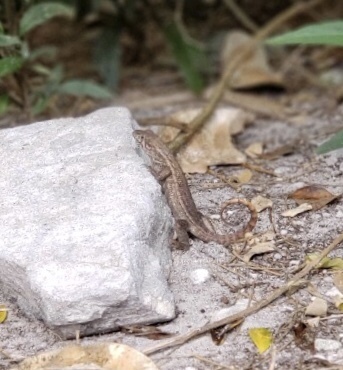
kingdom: Animalia
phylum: Chordata
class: Squamata
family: Leiocephalidae
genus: Leiocephalus
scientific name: Leiocephalus carinatus
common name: Northern curly-tailed lizard
